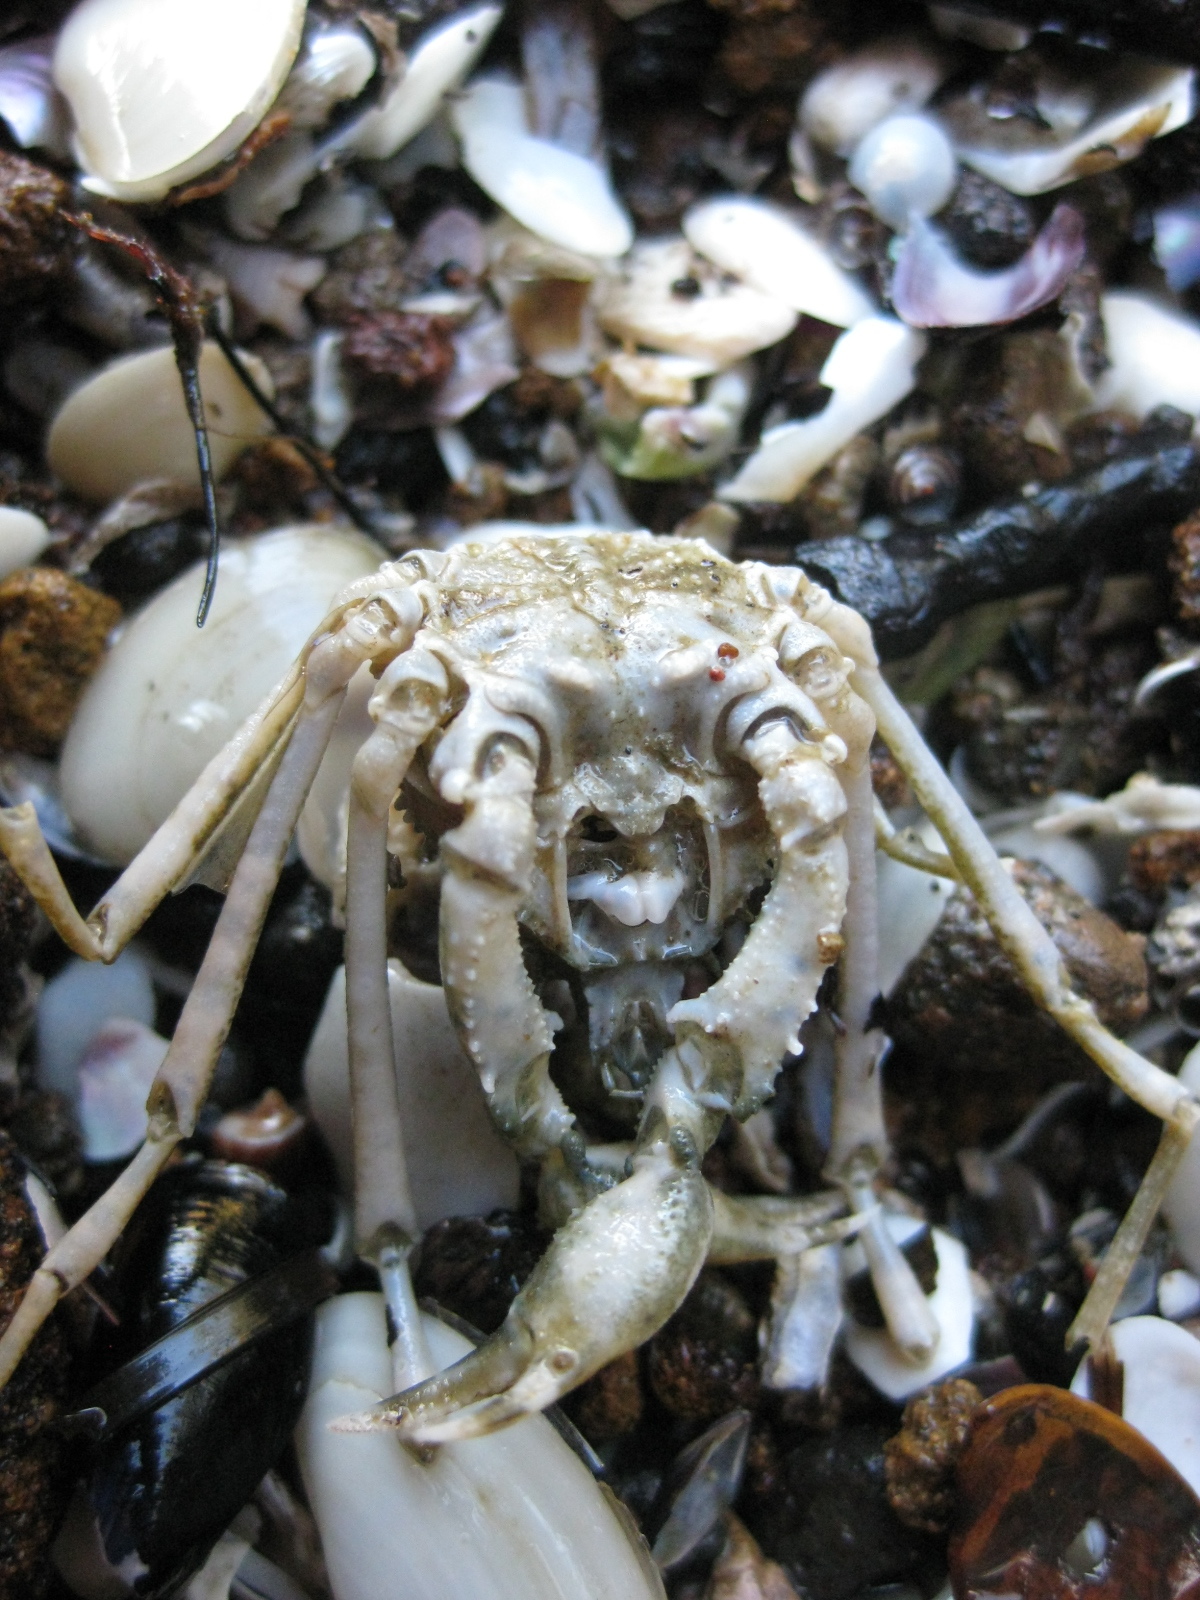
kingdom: Animalia
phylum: Arthropoda
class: Malacostraca
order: Decapoda
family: Inachoididae
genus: Pyromaia
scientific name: Pyromaia tuberculata
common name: Tuberculate pear crab
